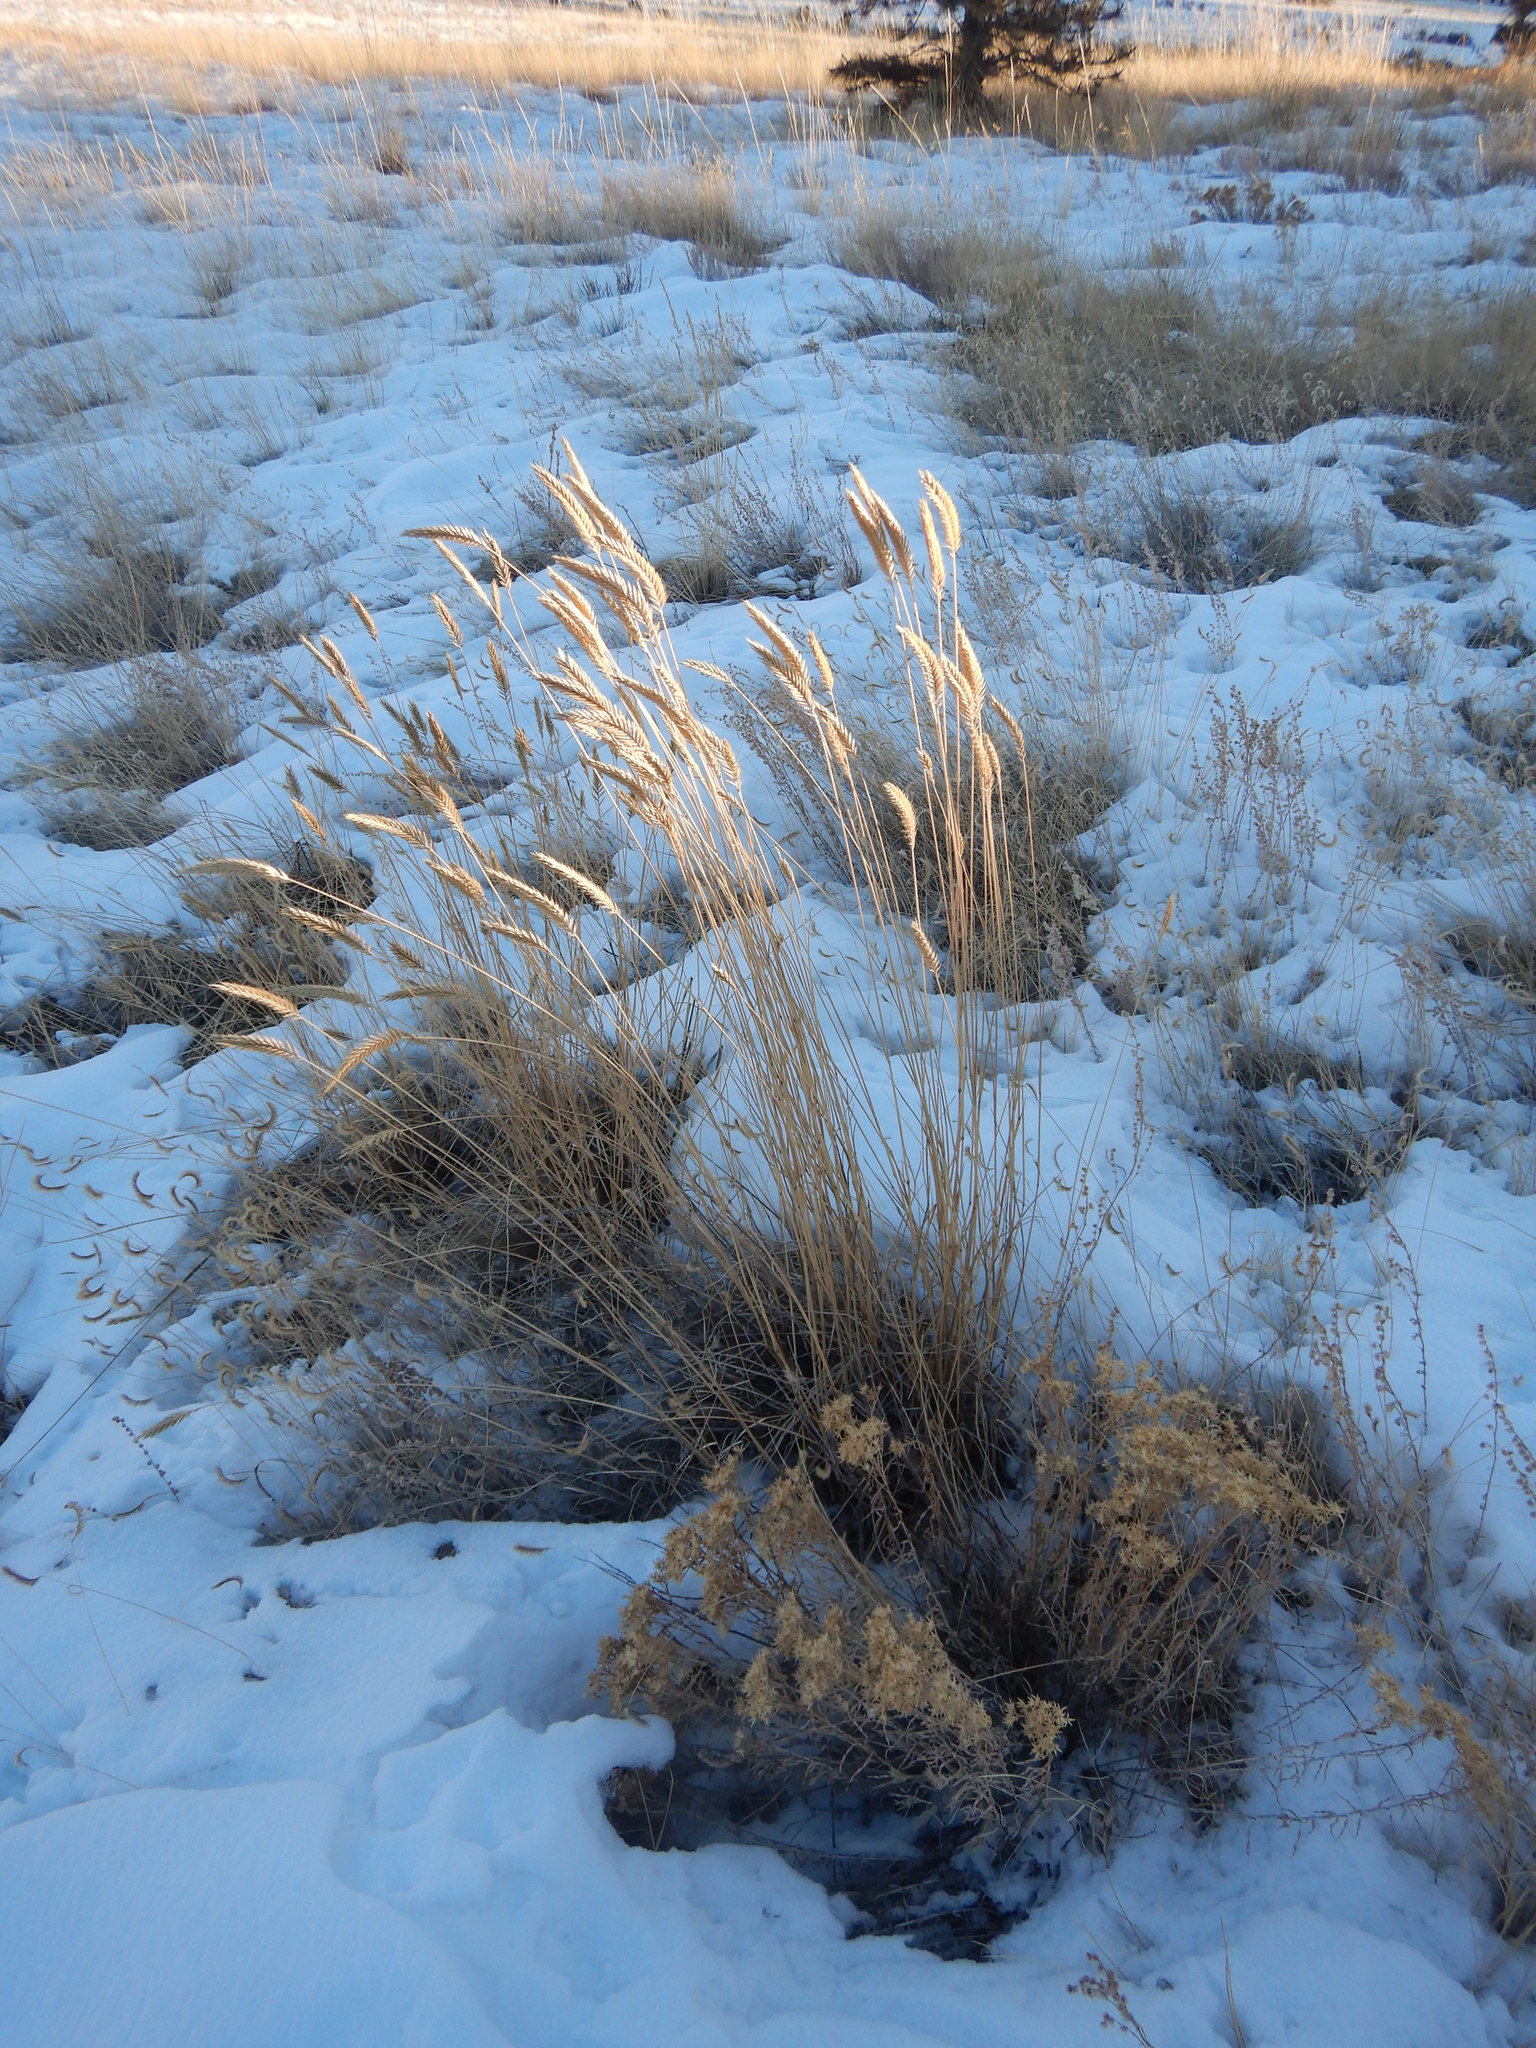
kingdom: Plantae
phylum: Tracheophyta
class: Liliopsida
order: Poales
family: Poaceae
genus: Agropyron
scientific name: Agropyron cristatum
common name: Crested wheatgrass
